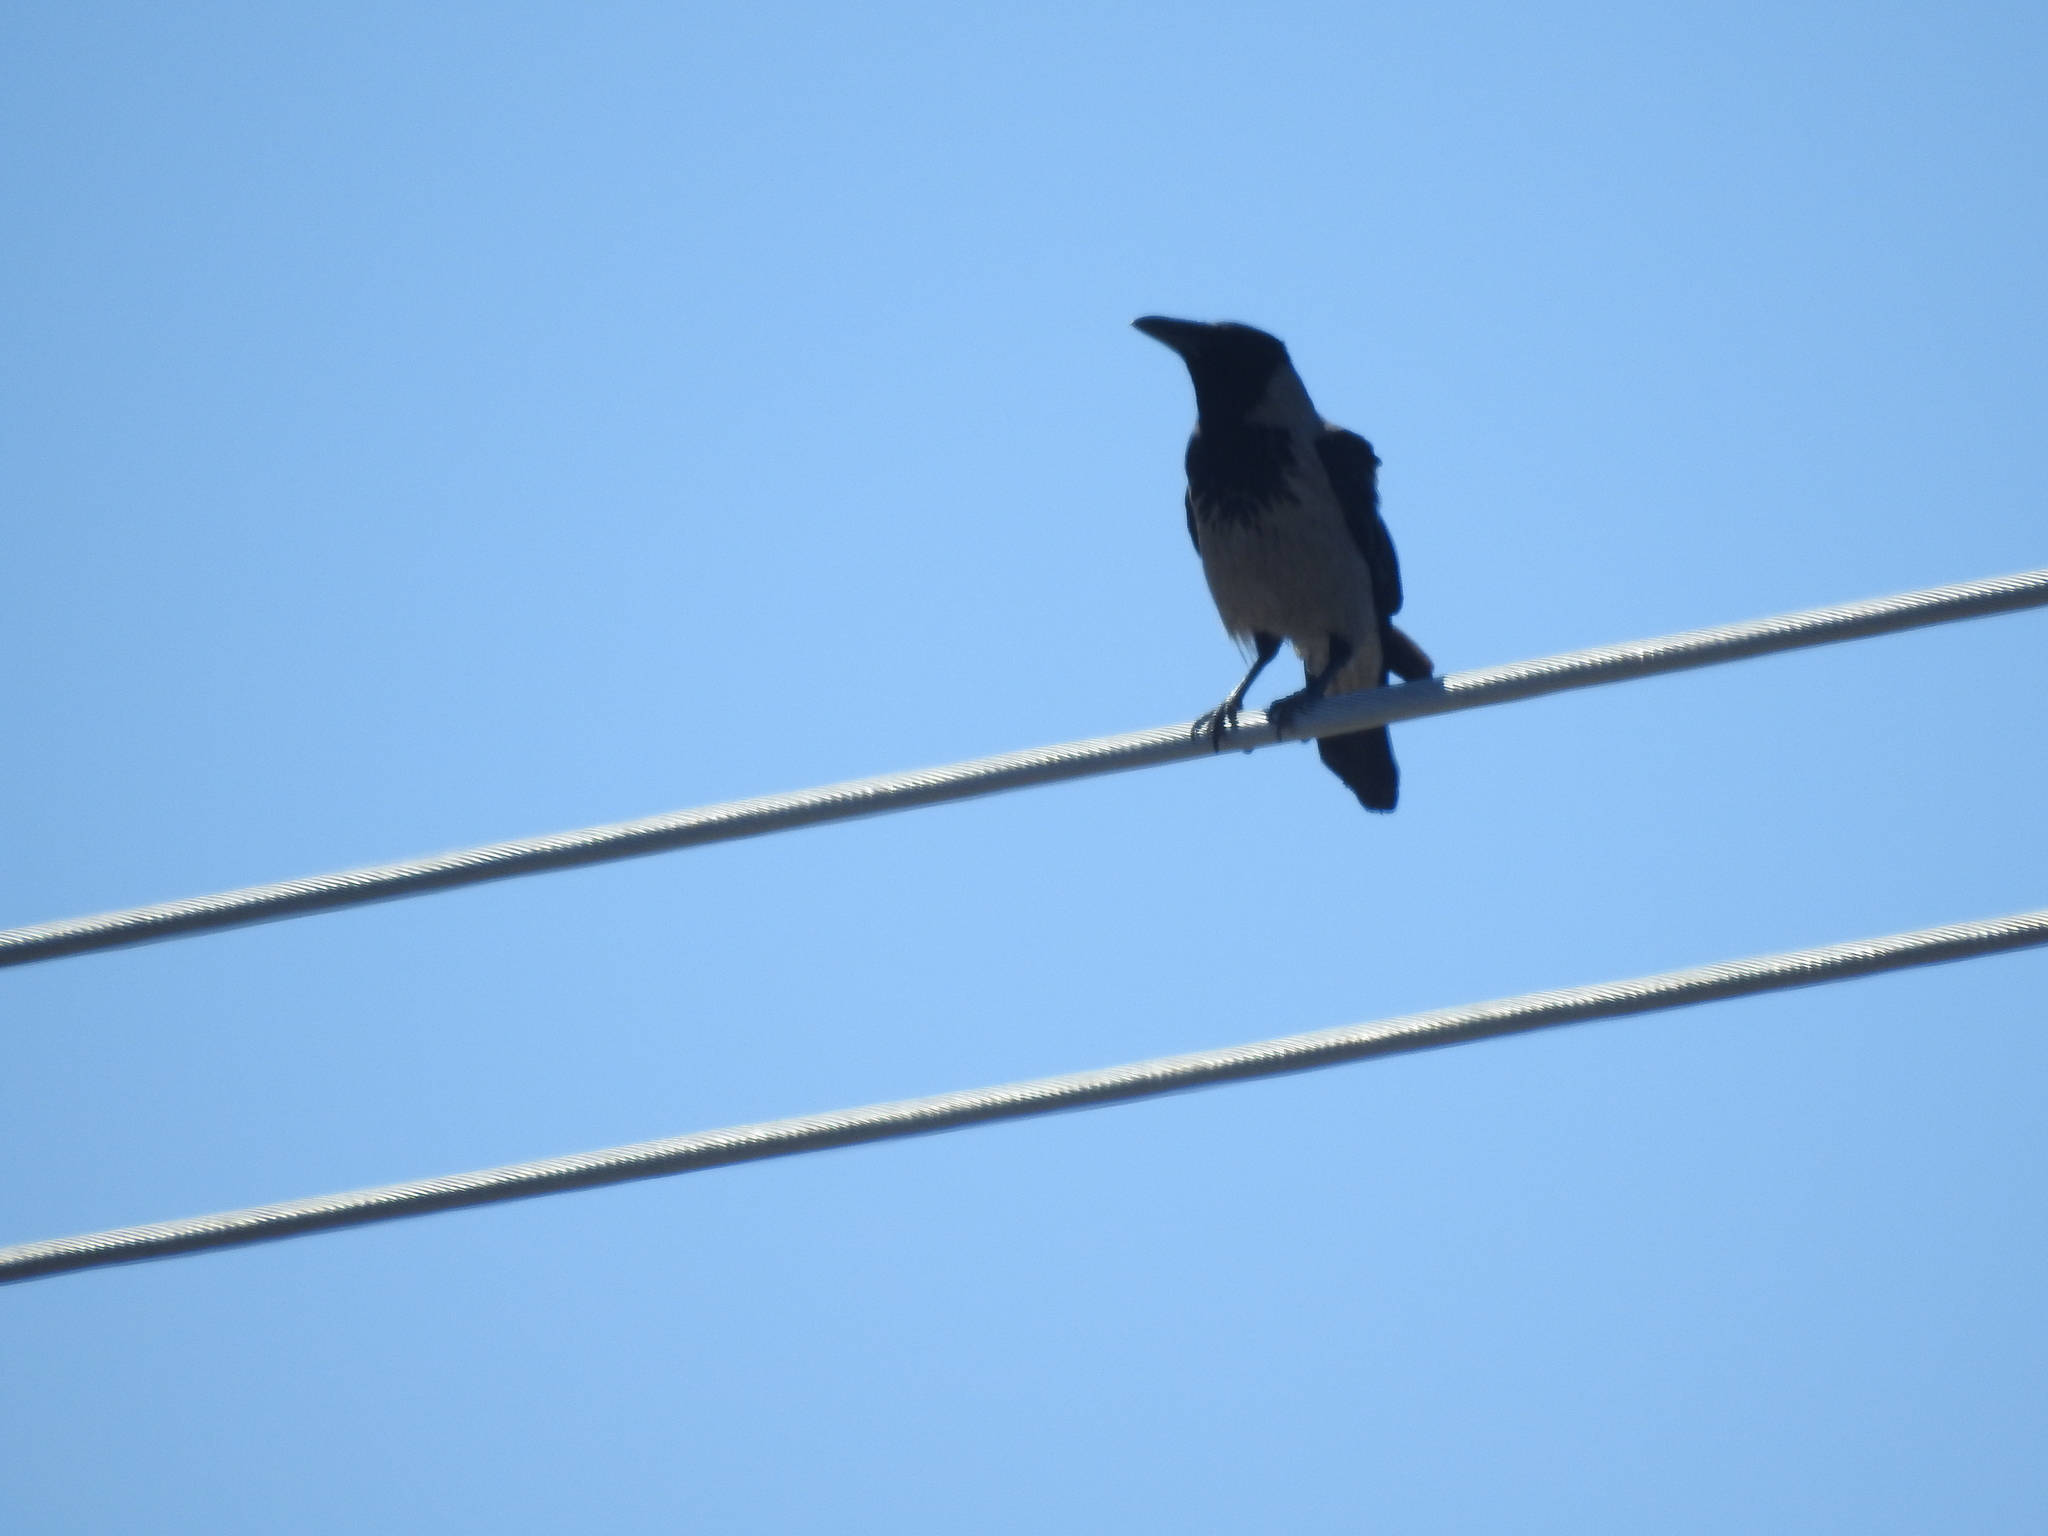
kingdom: Animalia
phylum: Chordata
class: Aves
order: Passeriformes
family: Corvidae
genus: Corvus
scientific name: Corvus cornix
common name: Hooded crow
